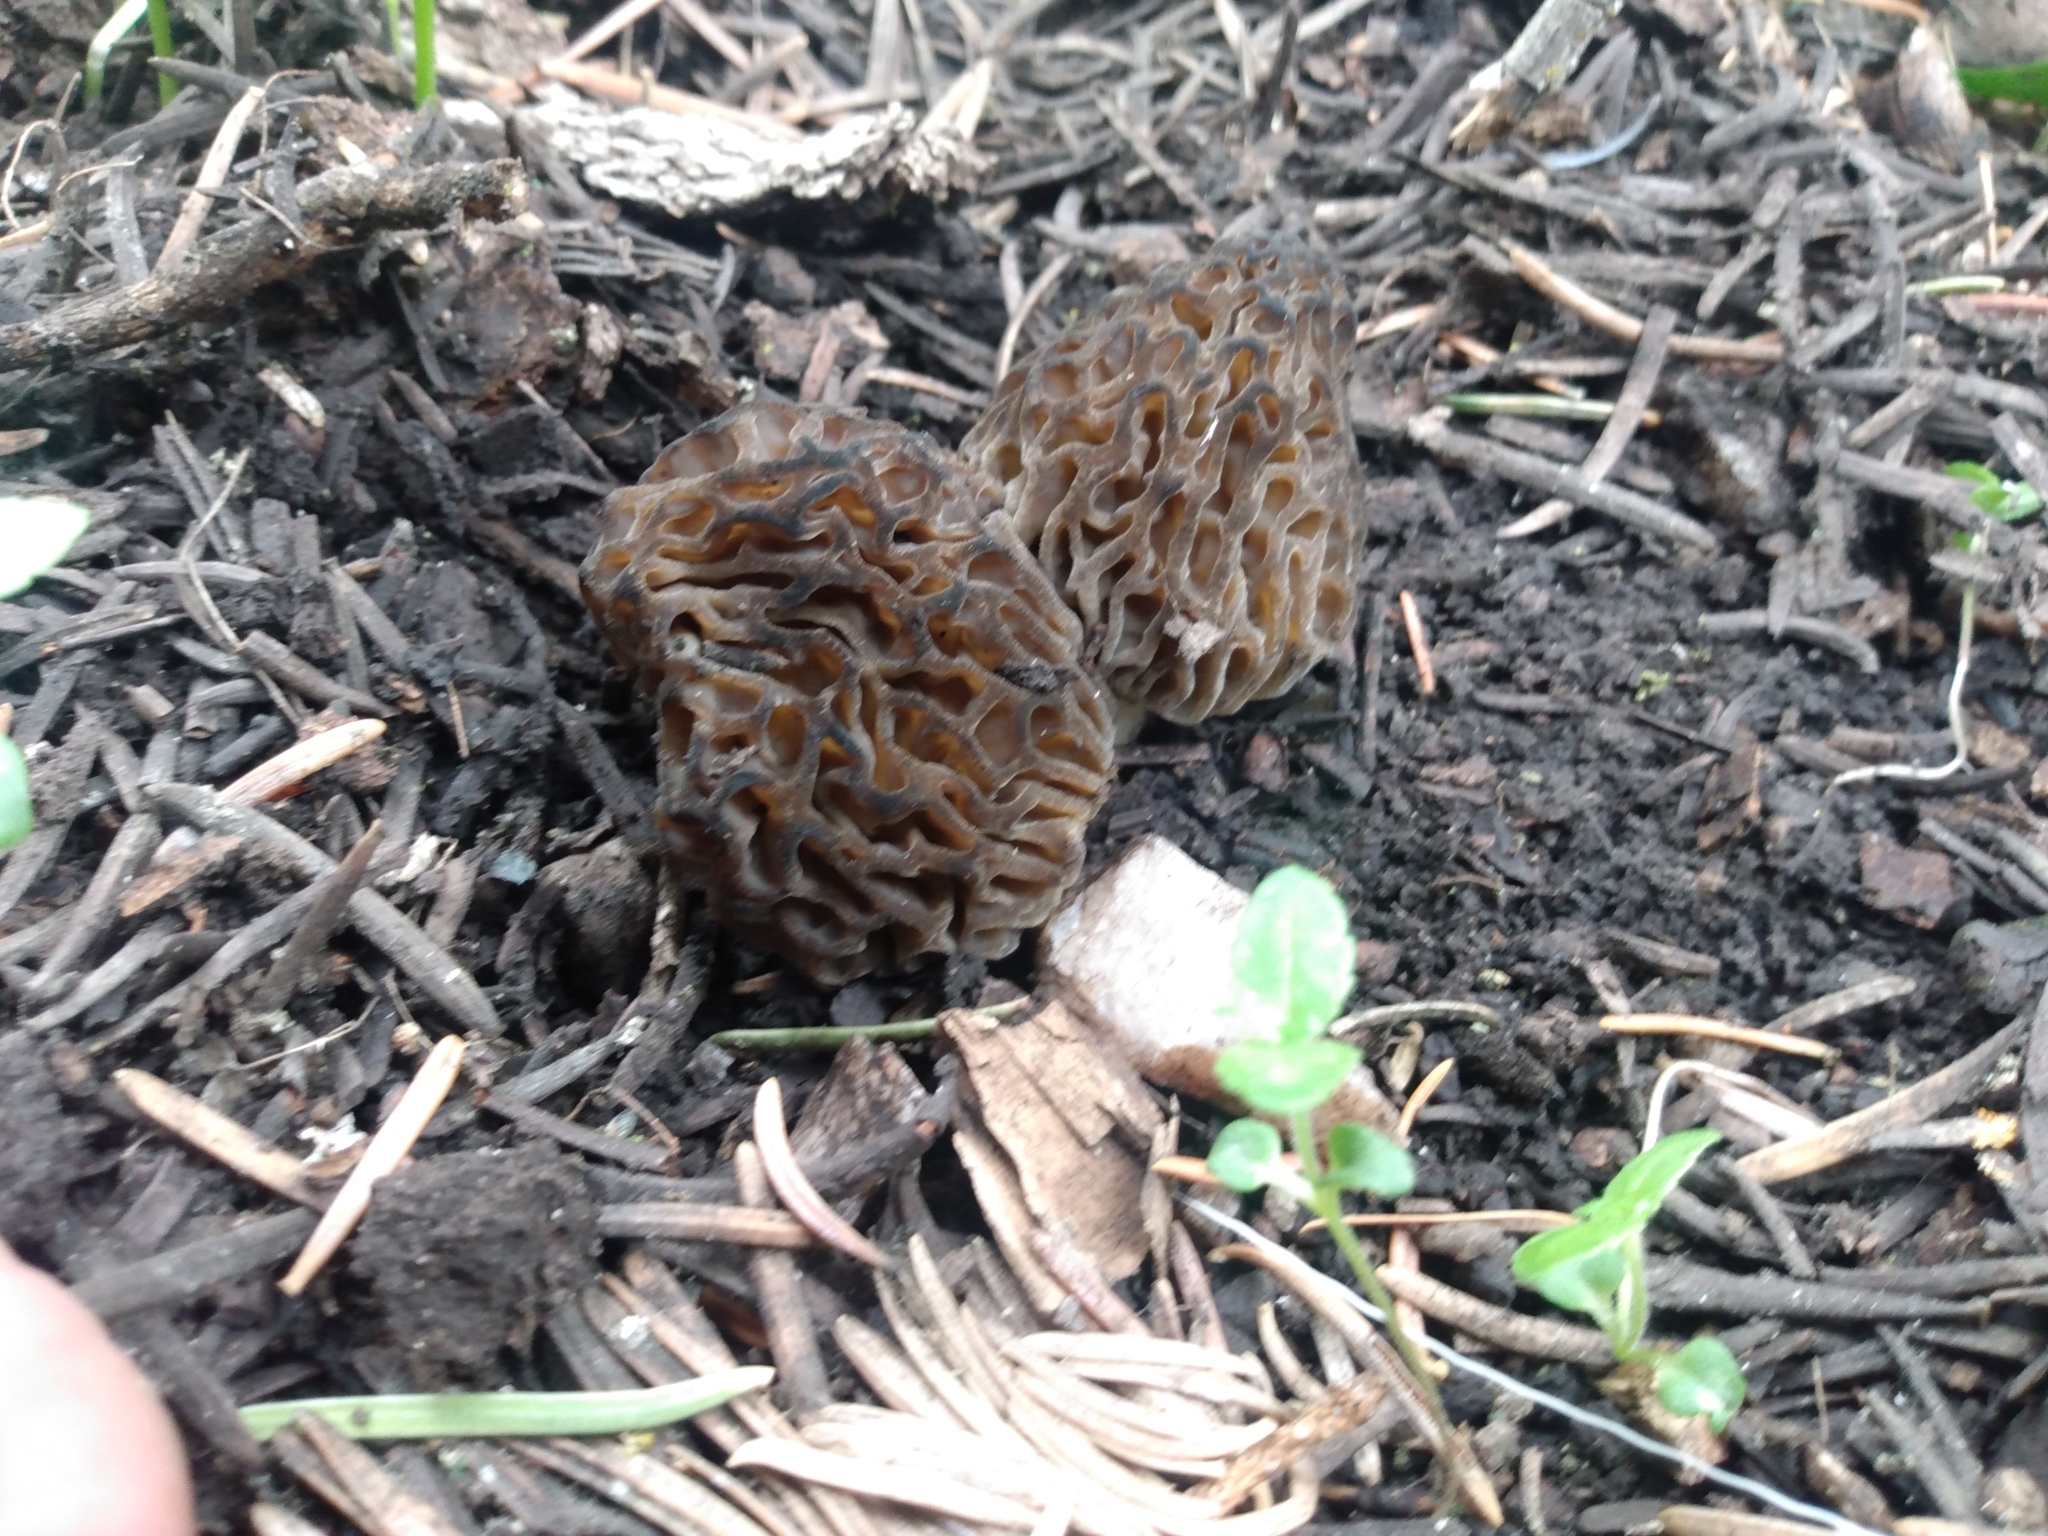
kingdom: Fungi
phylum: Ascomycota
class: Pezizomycetes
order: Pezizales
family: Morchellaceae
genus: Morchella
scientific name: Morchella snyderi
